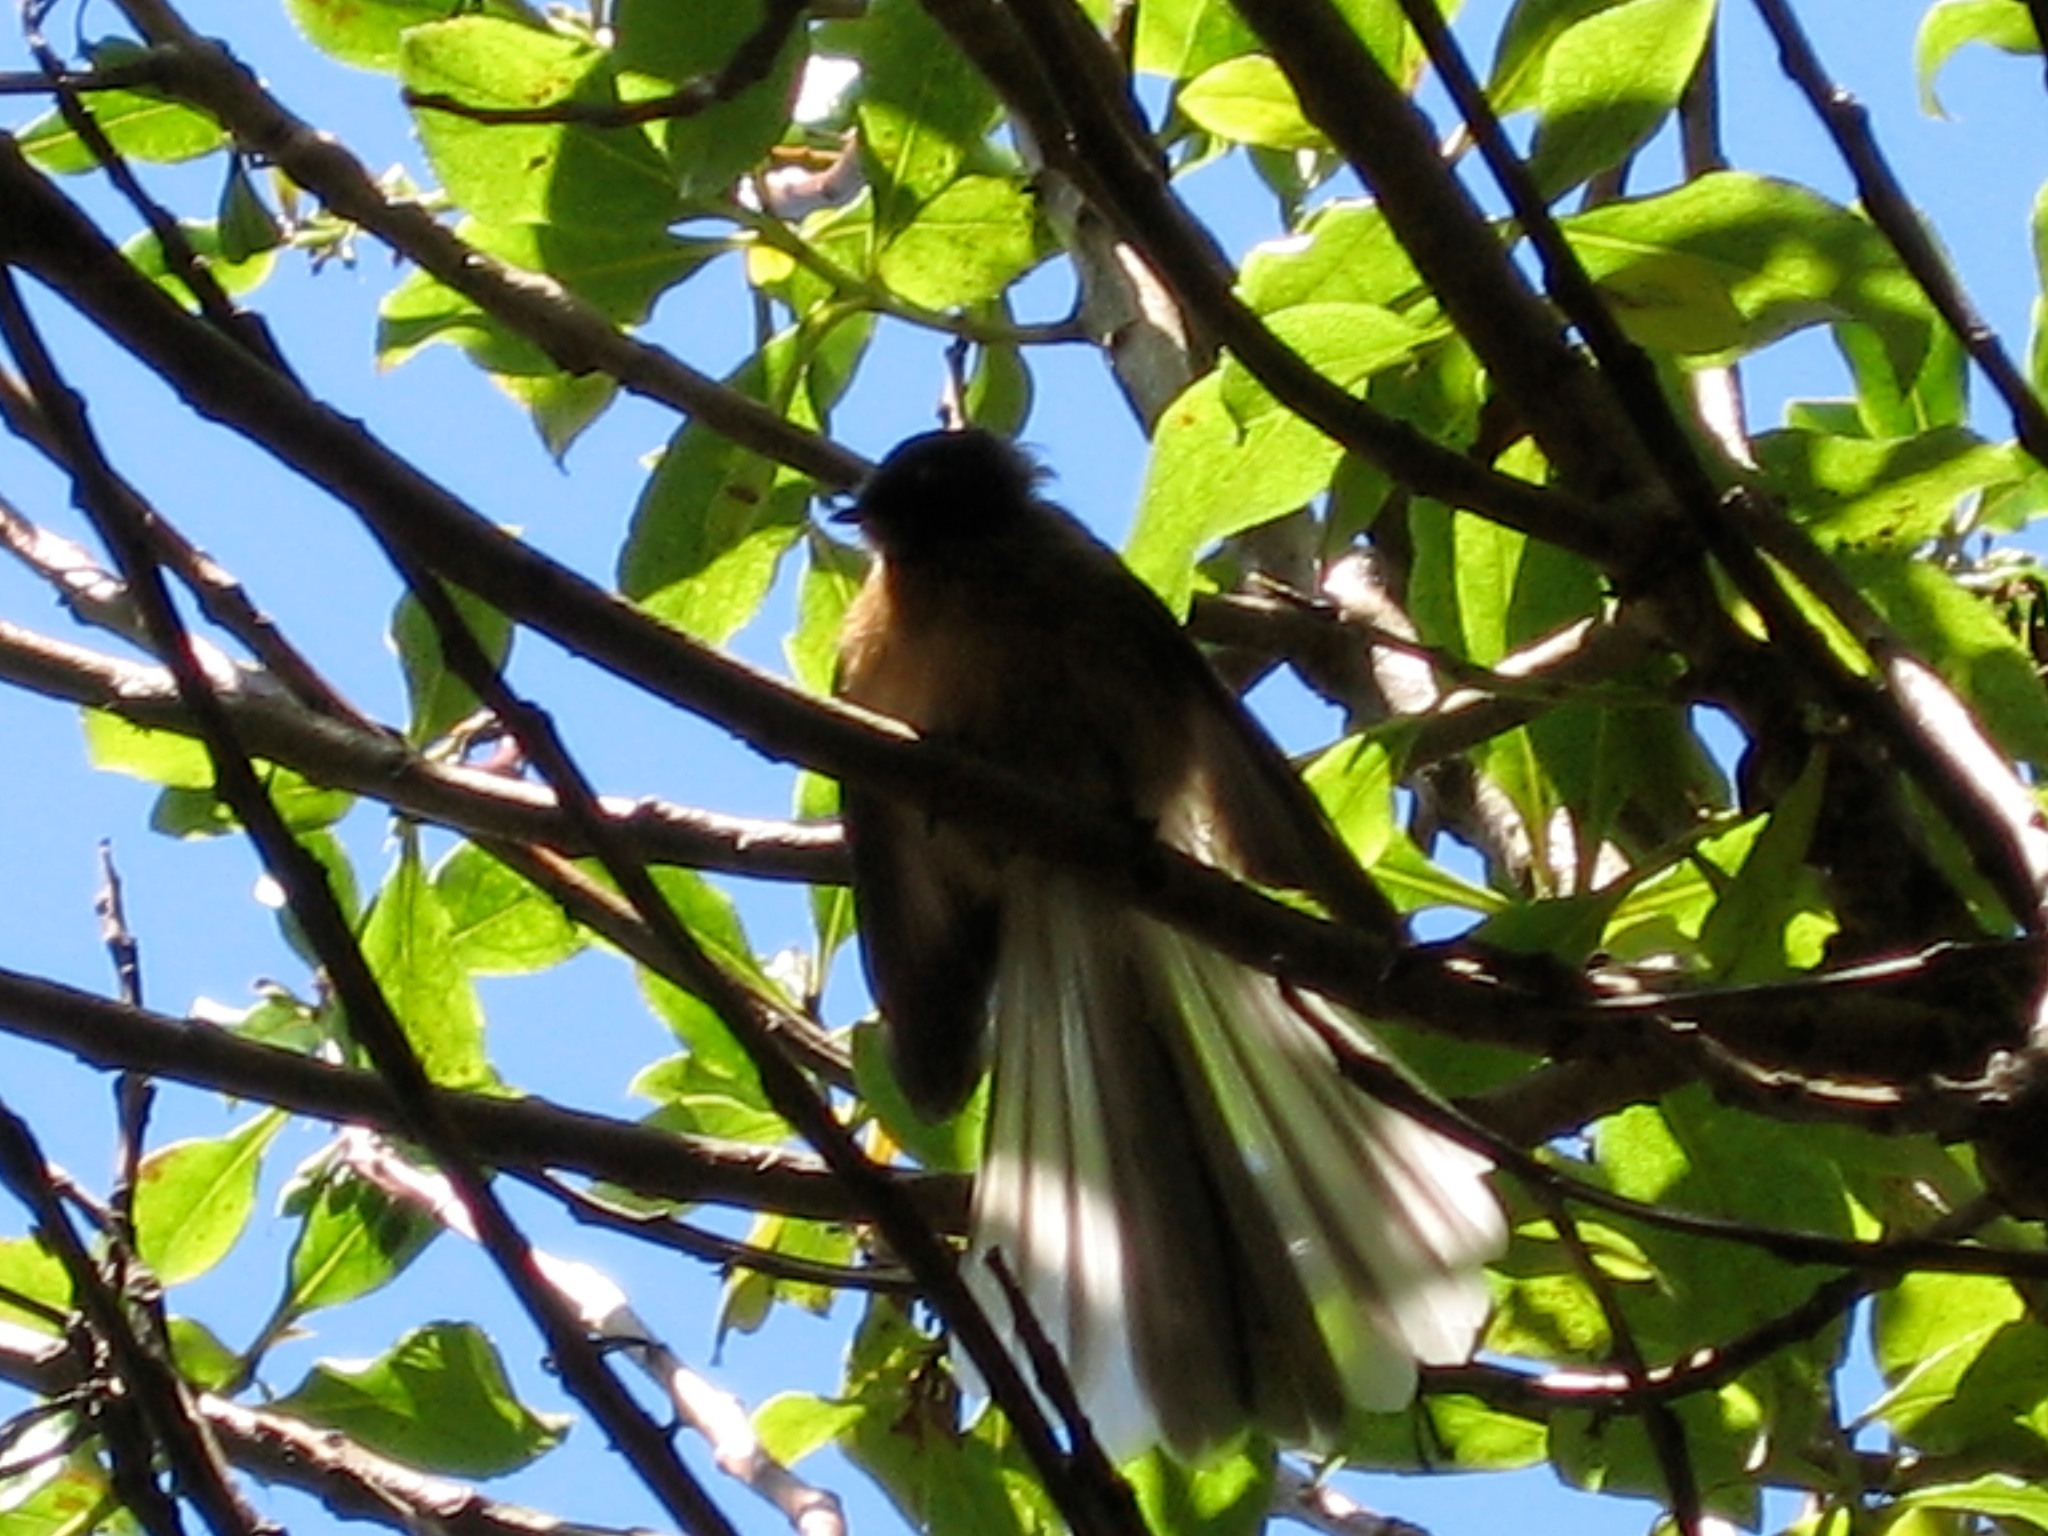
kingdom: Animalia
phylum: Chordata
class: Aves
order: Passeriformes
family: Rhipiduridae
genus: Rhipidura
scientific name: Rhipidura fuliginosa
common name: New zealand fantail
